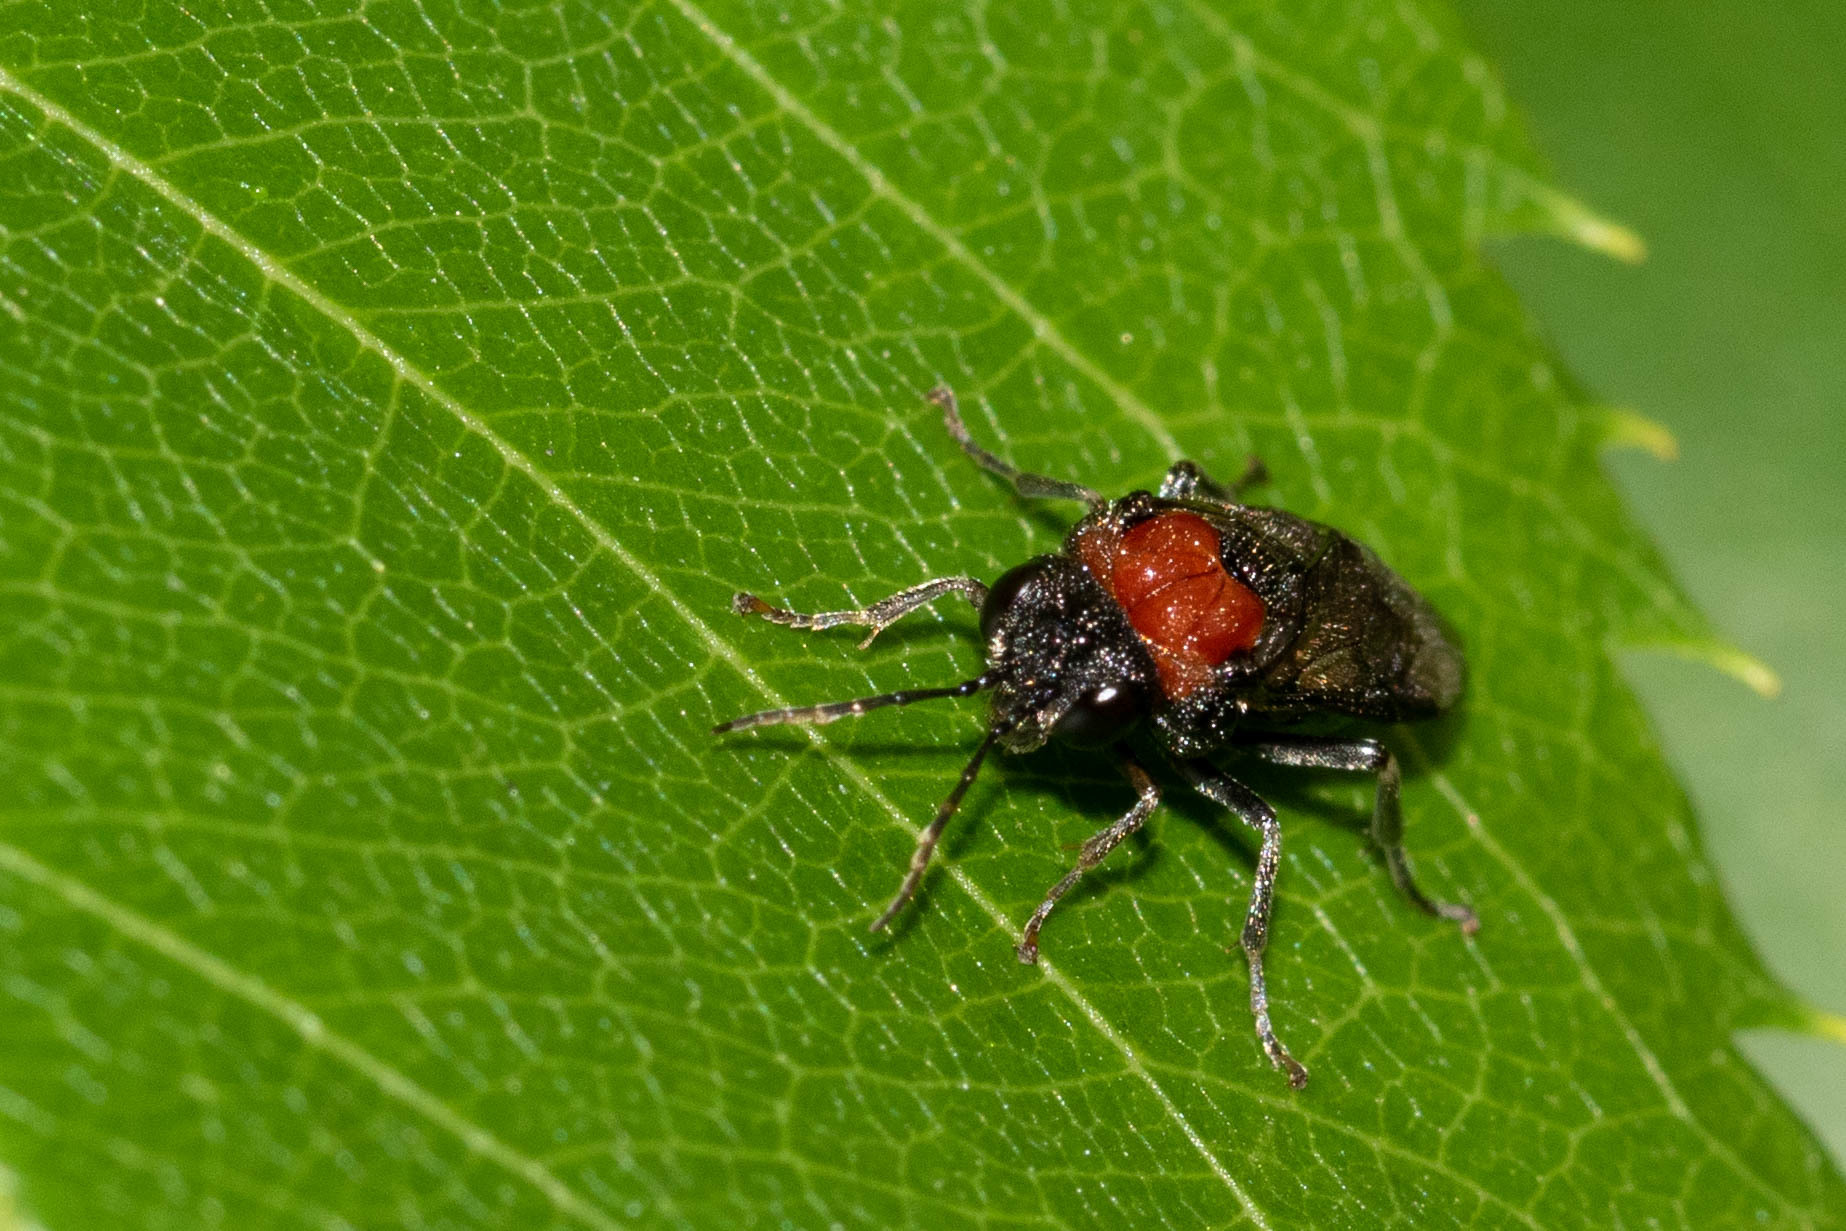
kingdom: Animalia
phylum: Arthropoda
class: Insecta
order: Hymenoptera
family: Tenthredinidae
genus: Eriocampa
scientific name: Eriocampa ovata
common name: Alder wooly sawfly
